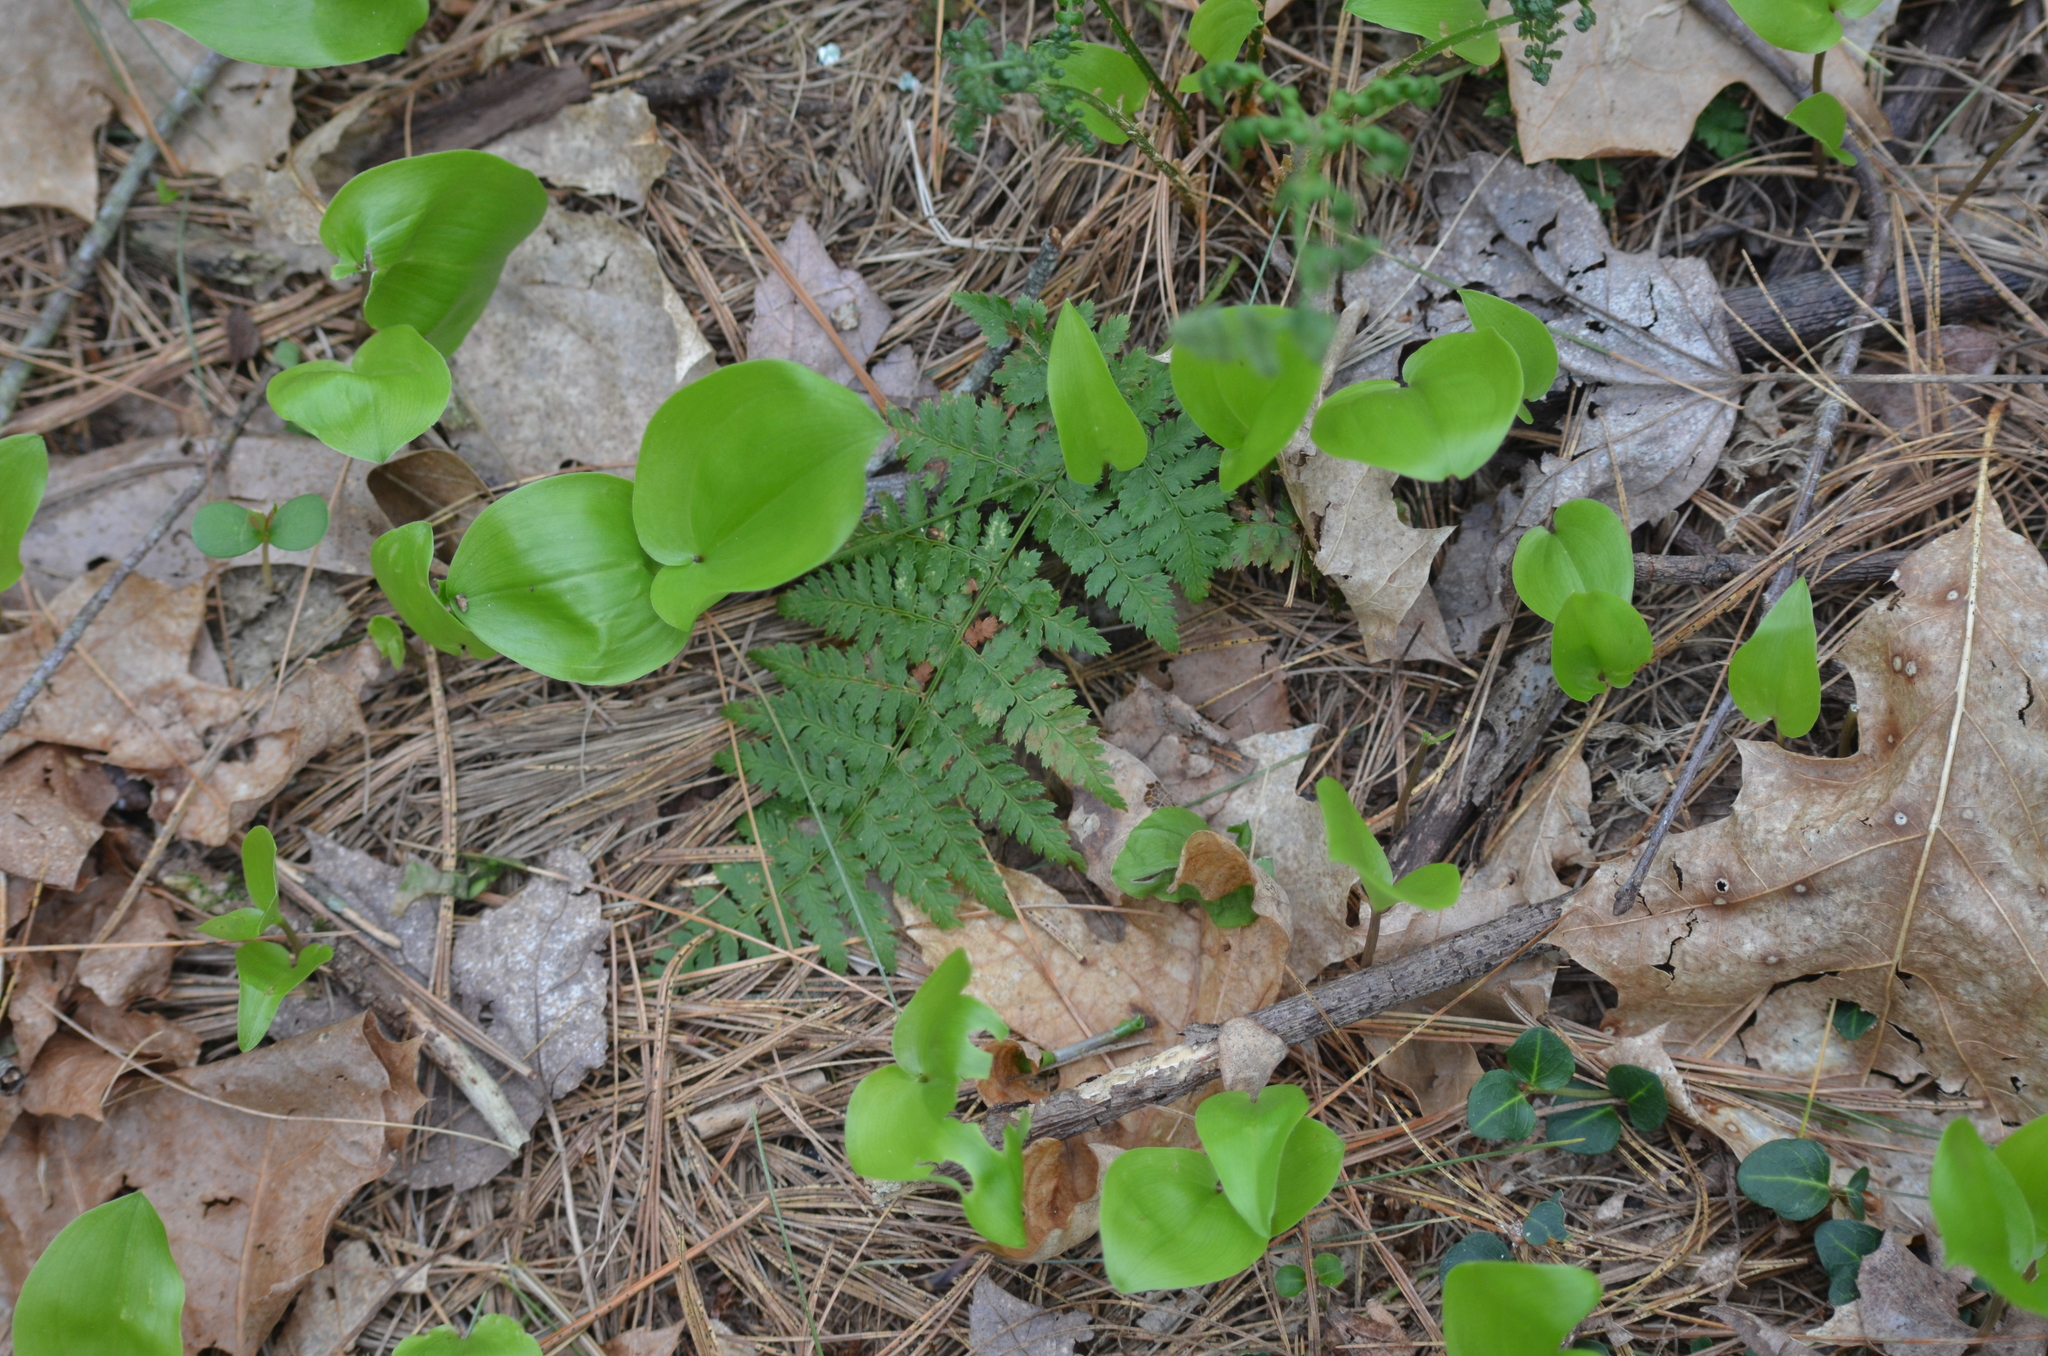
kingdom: Plantae
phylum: Tracheophyta
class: Liliopsida
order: Asparagales
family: Asparagaceae
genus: Maianthemum
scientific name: Maianthemum canadense
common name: False lily-of-the-valley
